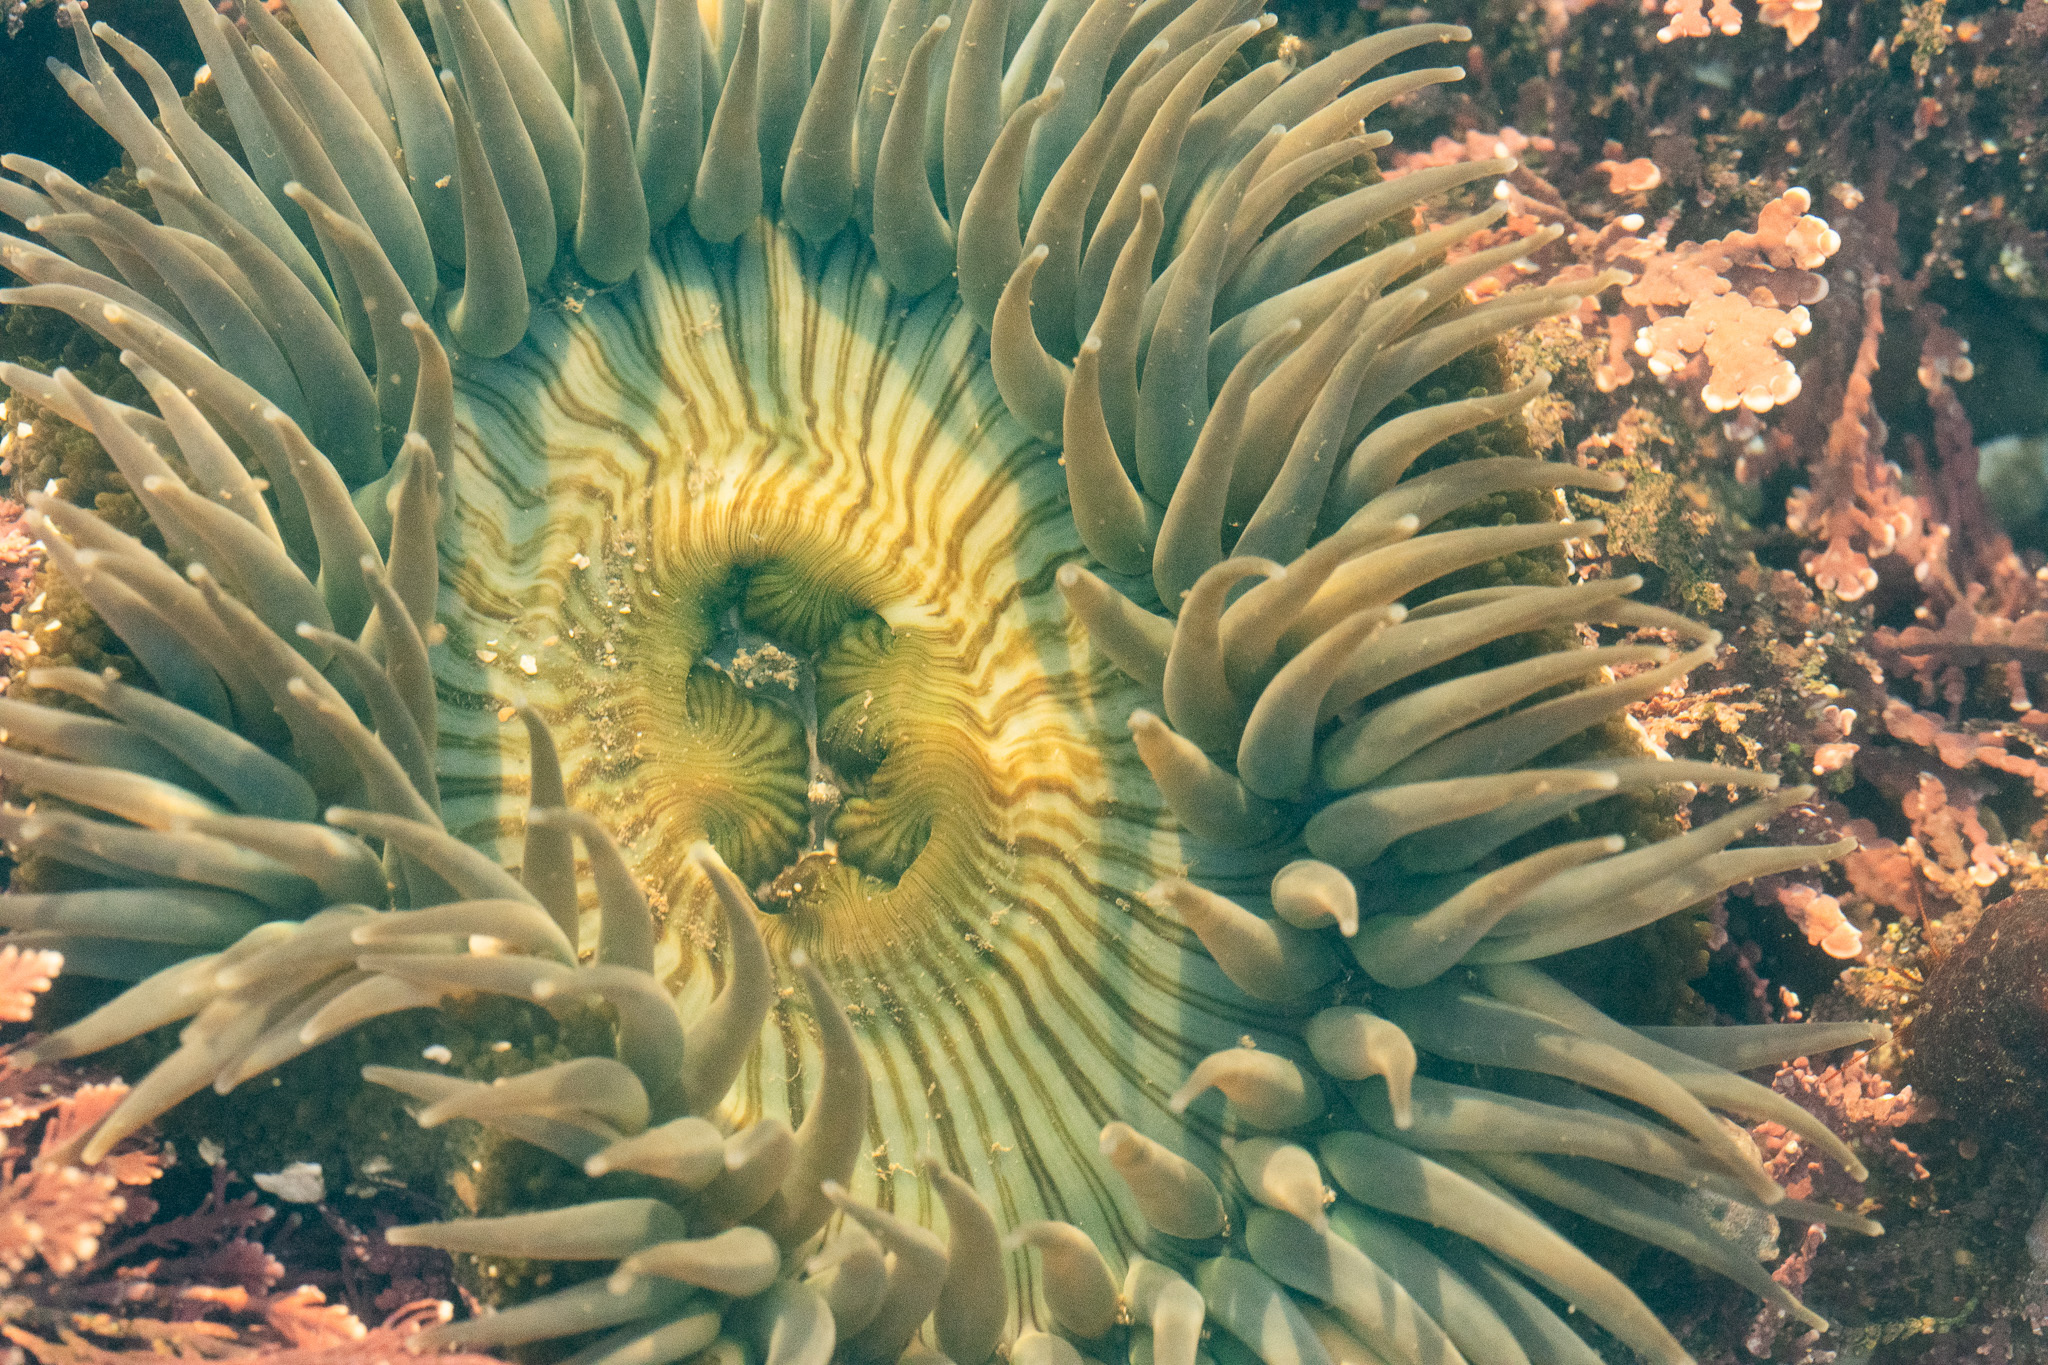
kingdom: Animalia
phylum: Cnidaria
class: Anthozoa
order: Actiniaria
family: Actiniidae
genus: Anthopleura
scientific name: Anthopleura sola
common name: Sun anemone
